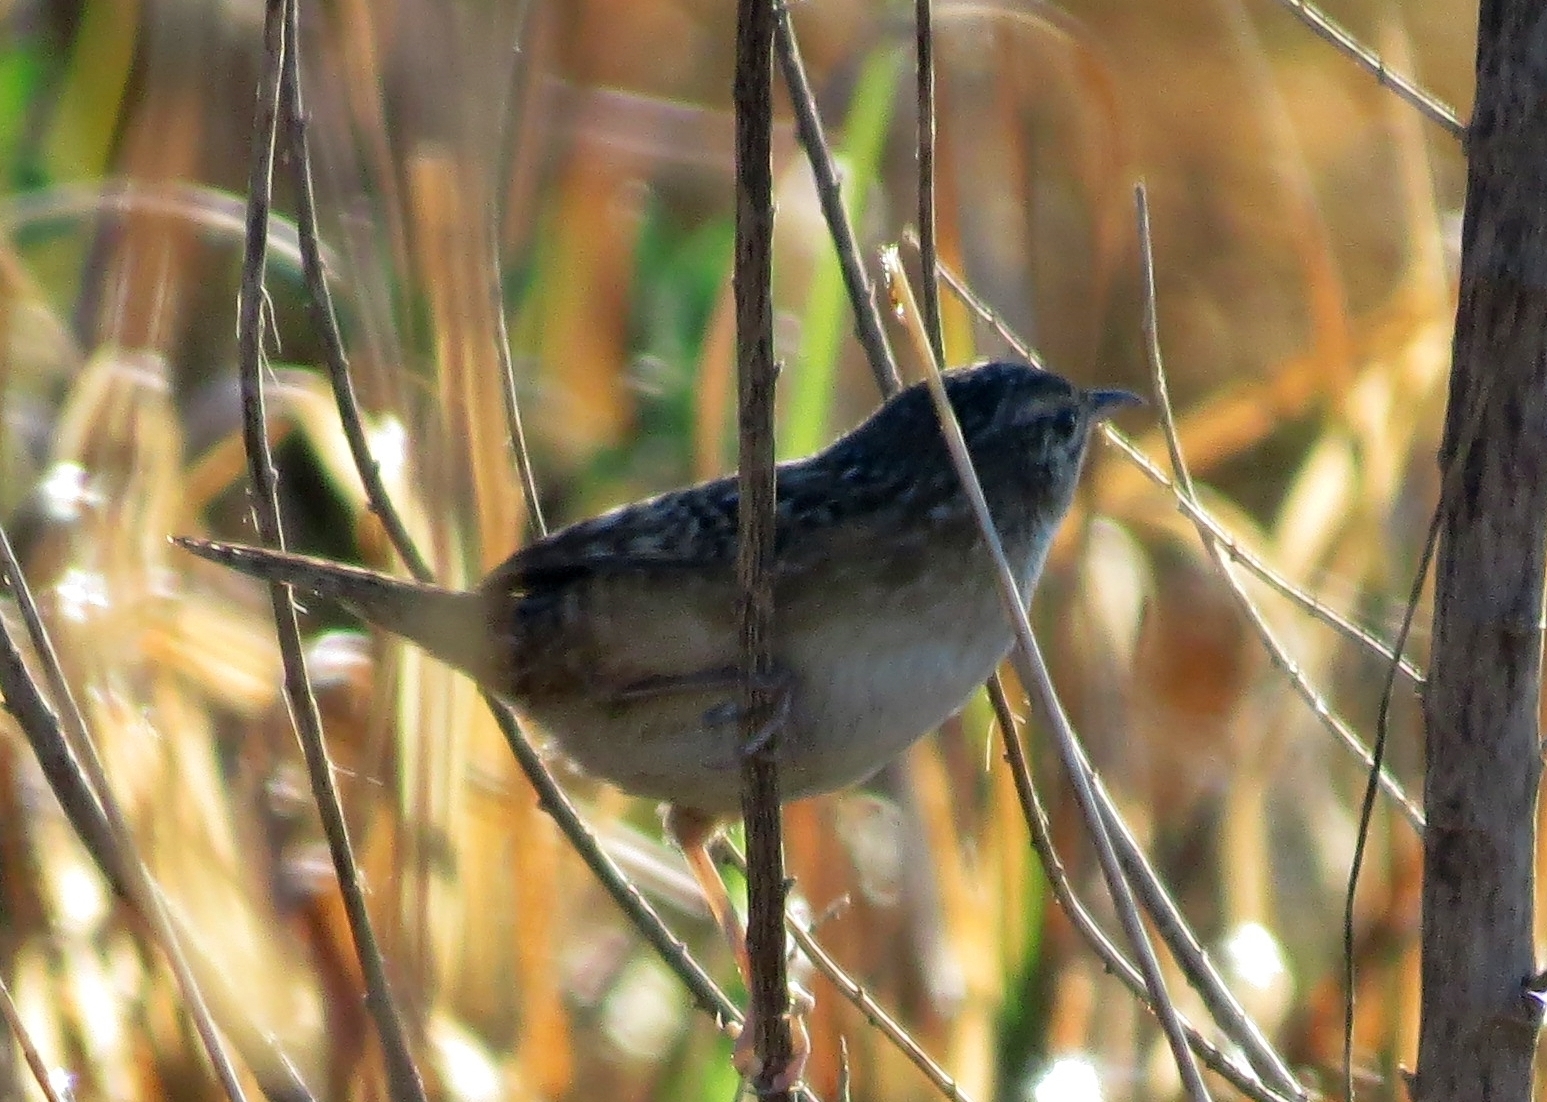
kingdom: Animalia
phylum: Chordata
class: Aves
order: Passeriformes
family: Troglodytidae
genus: Cistothorus
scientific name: Cistothorus platensis
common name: Sedge wren
